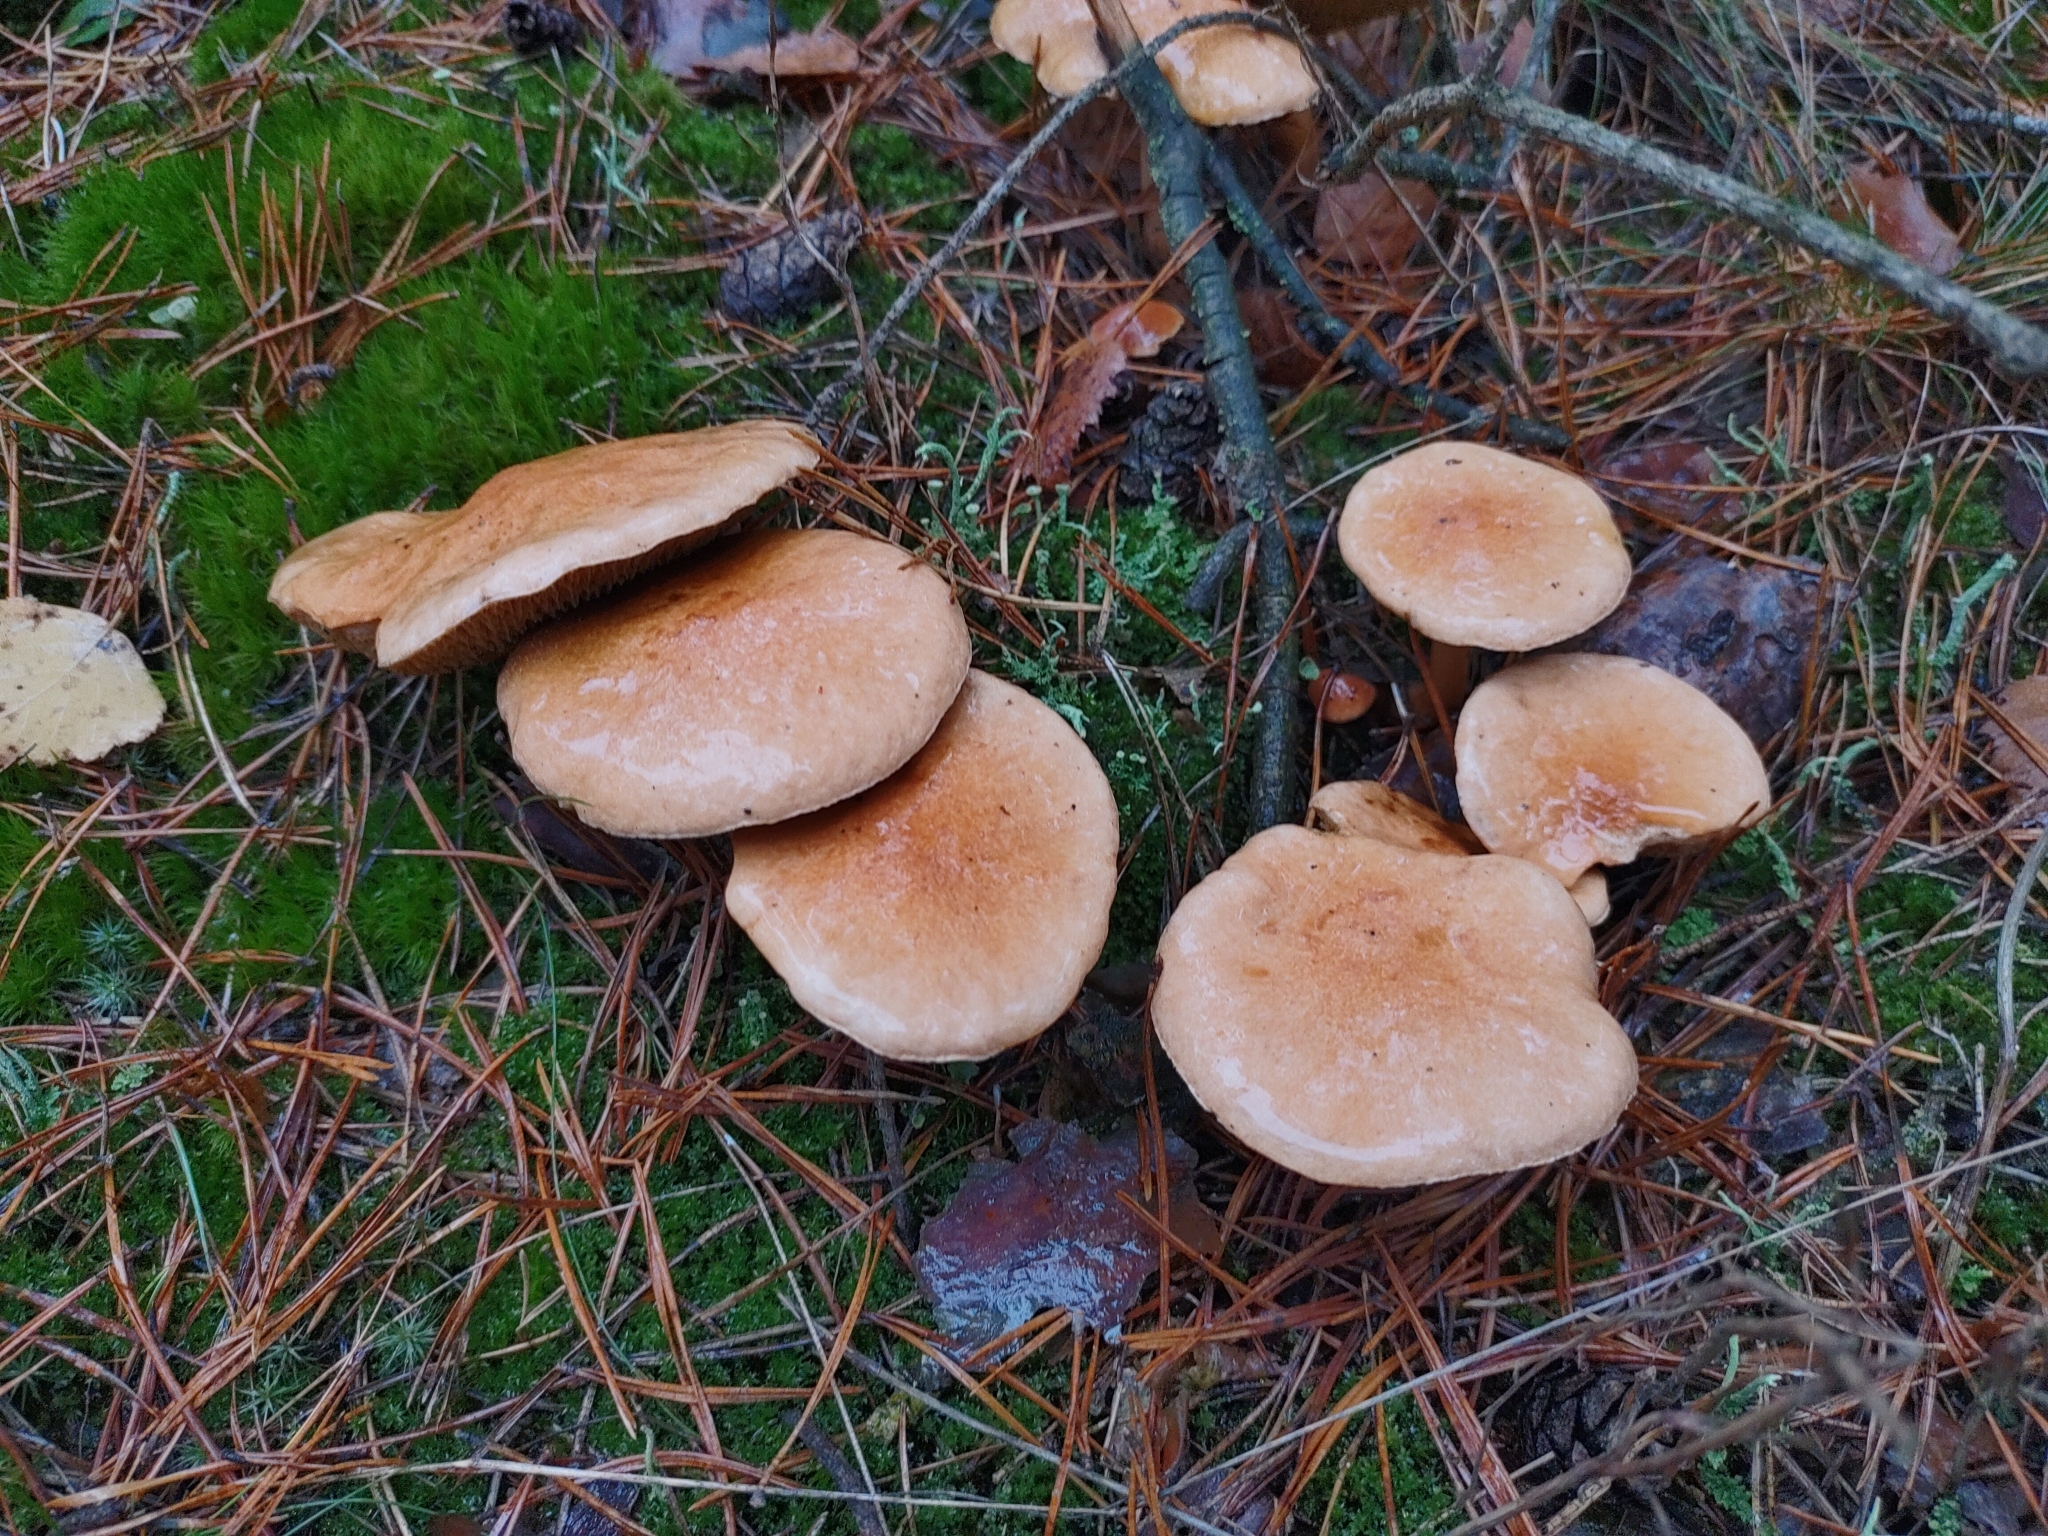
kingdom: Fungi
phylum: Basidiomycota
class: Agaricomycetes
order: Boletales
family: Suillaceae
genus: Suillus
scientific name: Suillus bovinus
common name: Bovine bolete
